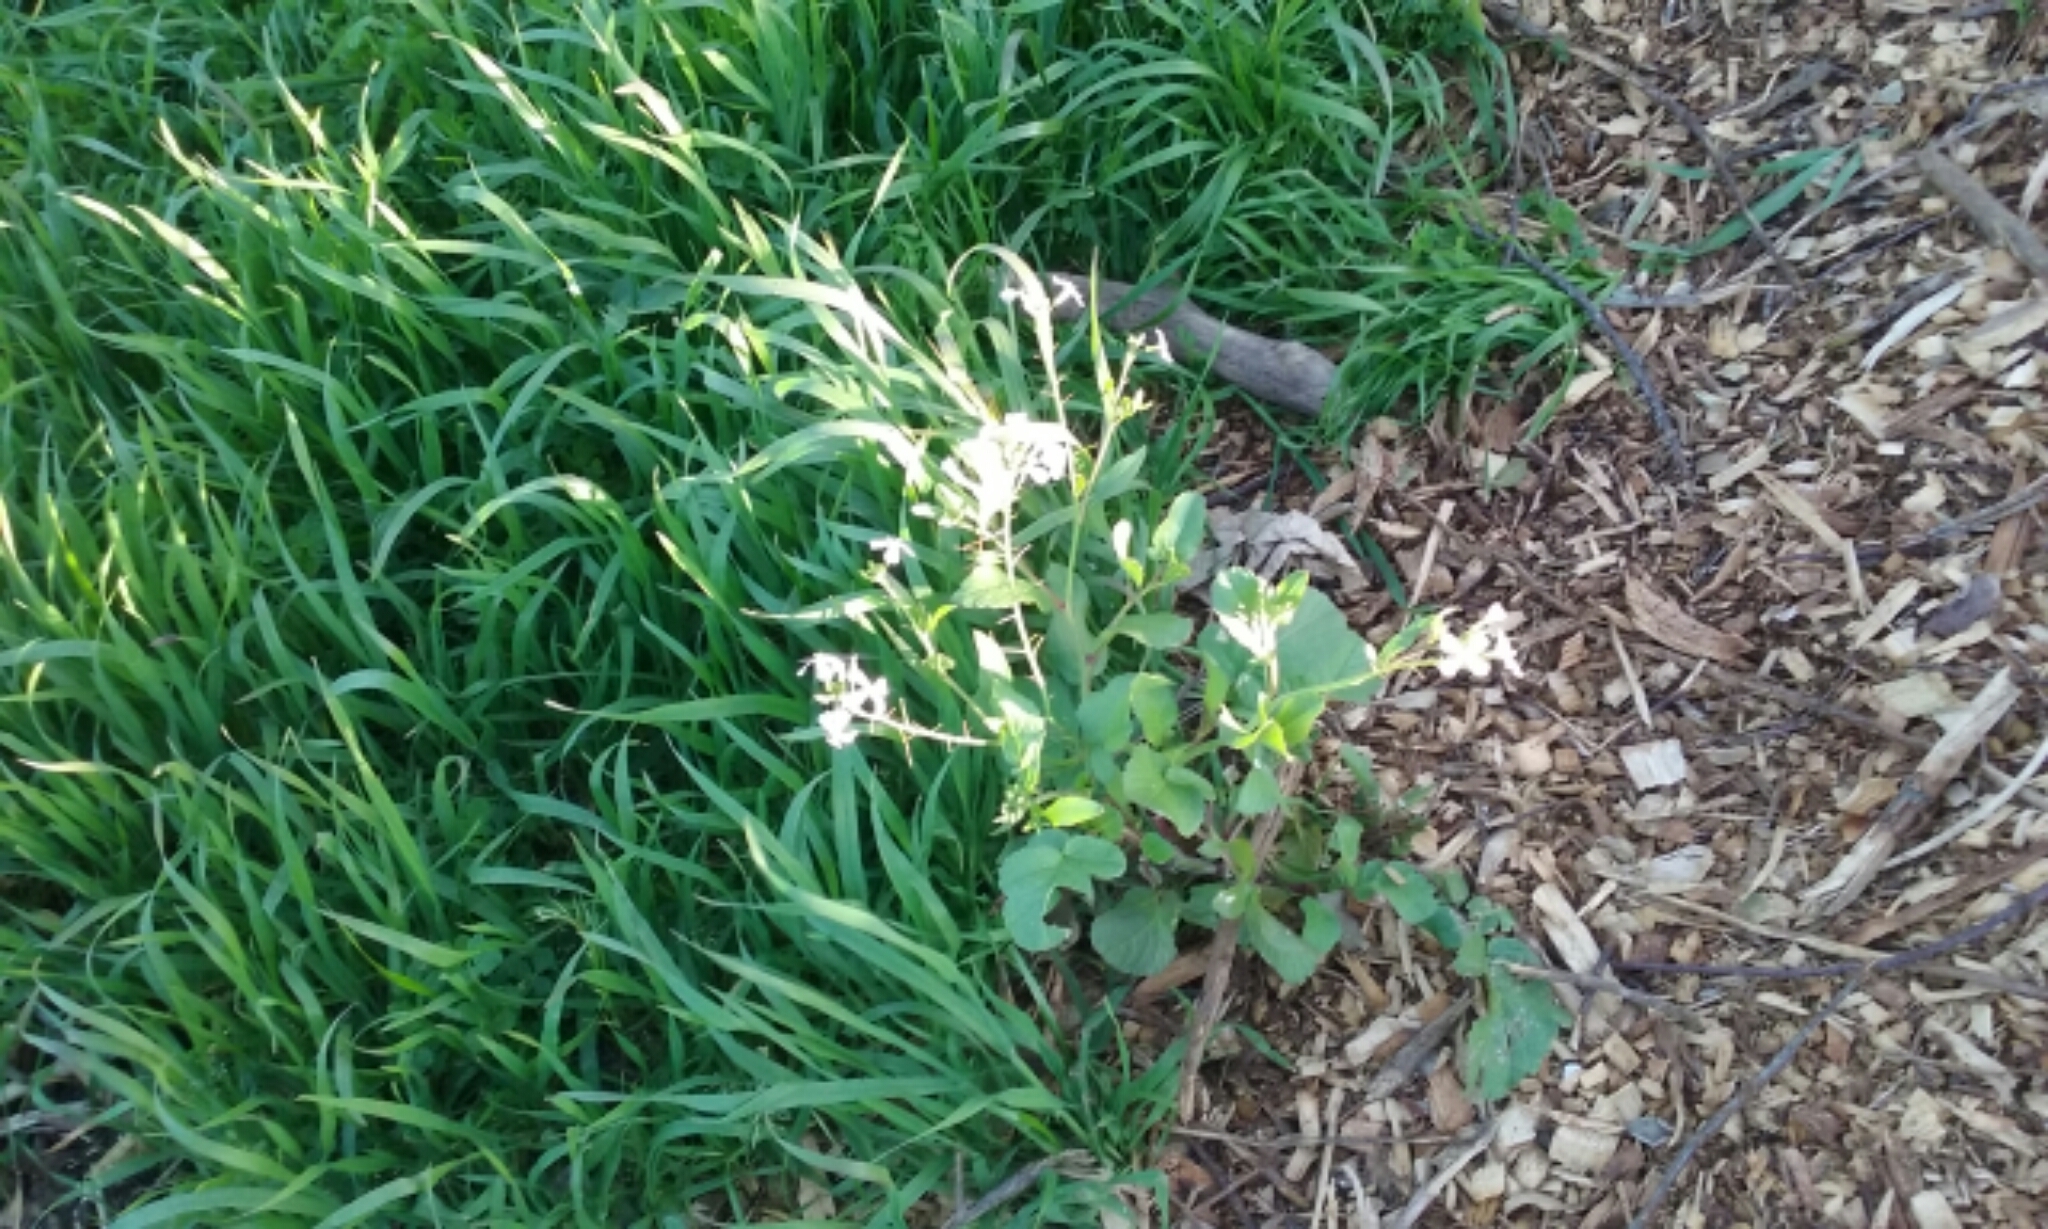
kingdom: Plantae
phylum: Tracheophyta
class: Magnoliopsida
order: Brassicales
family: Brassicaceae
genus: Raphanus
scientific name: Raphanus sativus
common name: Cultivated radish
